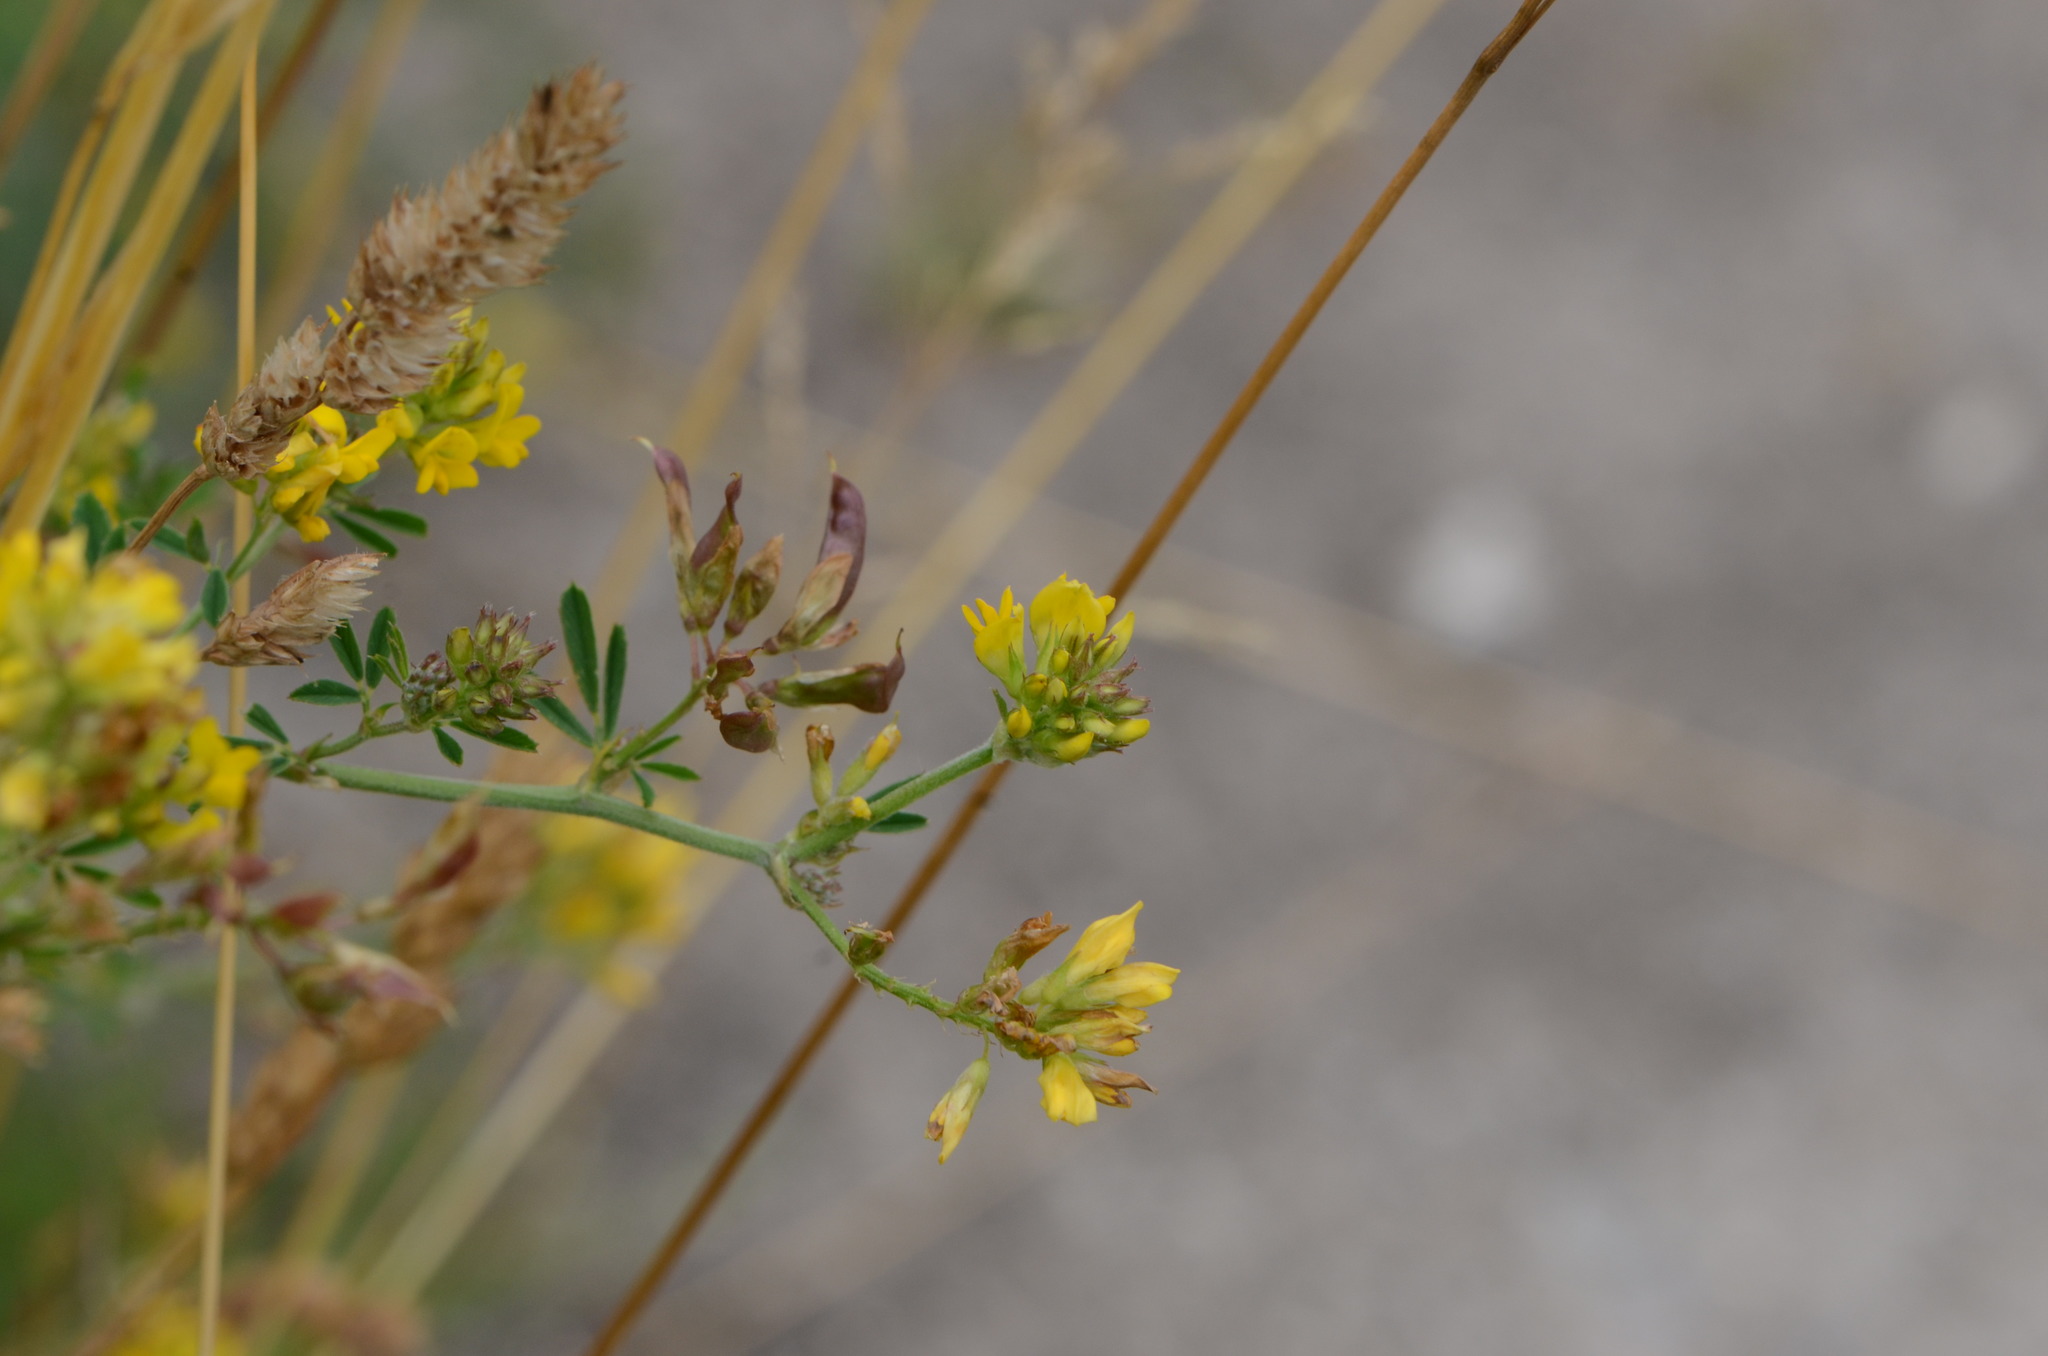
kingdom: Plantae
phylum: Tracheophyta
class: Magnoliopsida
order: Fabales
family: Fabaceae
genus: Medicago
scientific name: Medicago falcata
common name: Sickle medick
